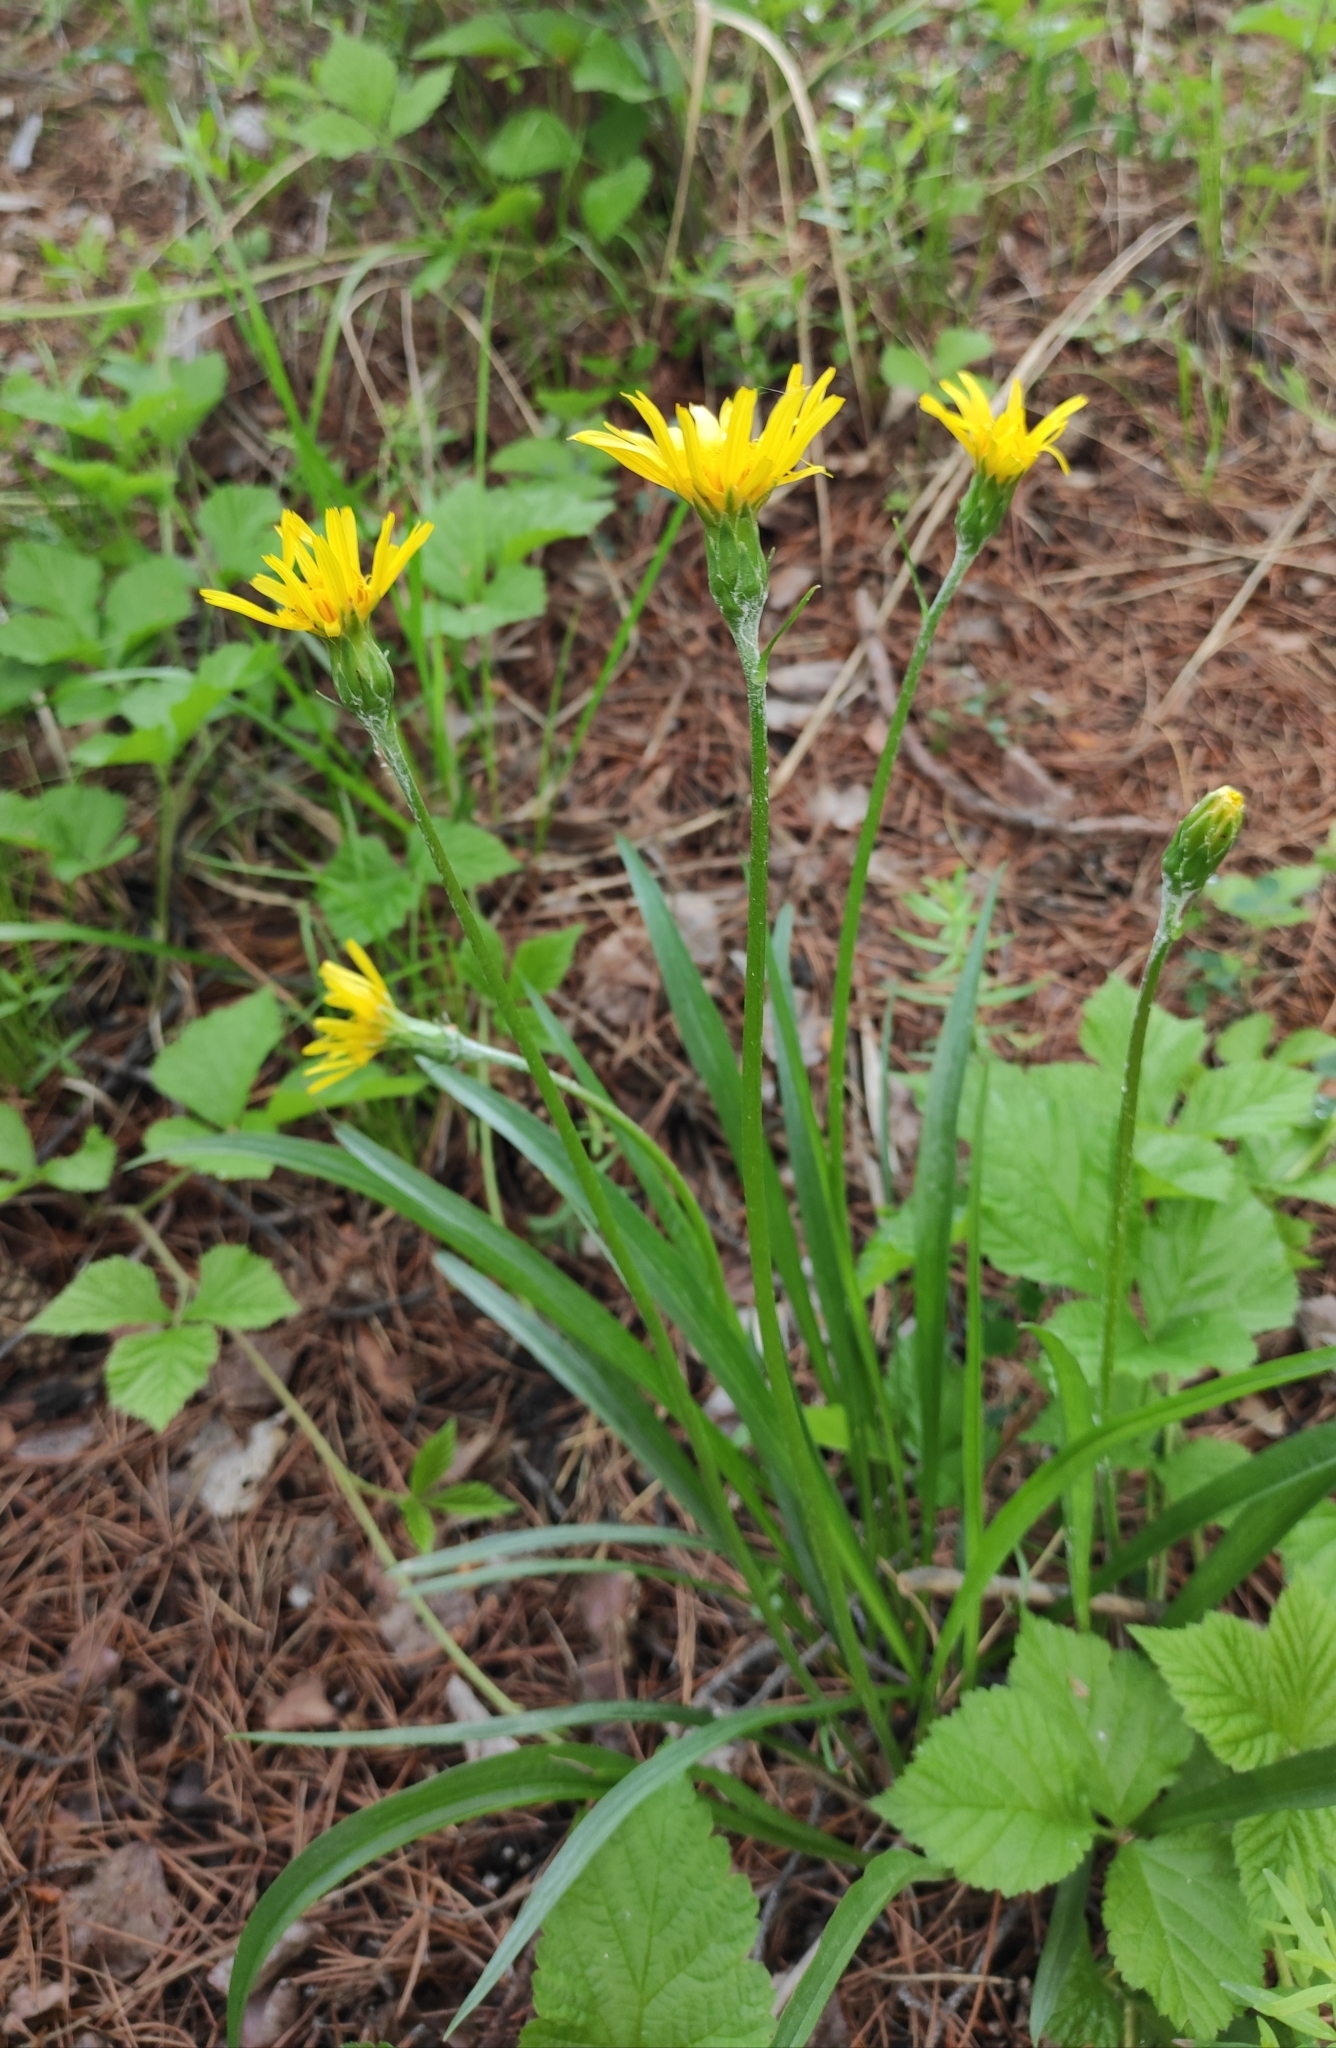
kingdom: Plantae
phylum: Tracheophyta
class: Magnoliopsida
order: Asterales
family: Asteraceae
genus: Scorzonera
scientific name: Scorzonera radiata
